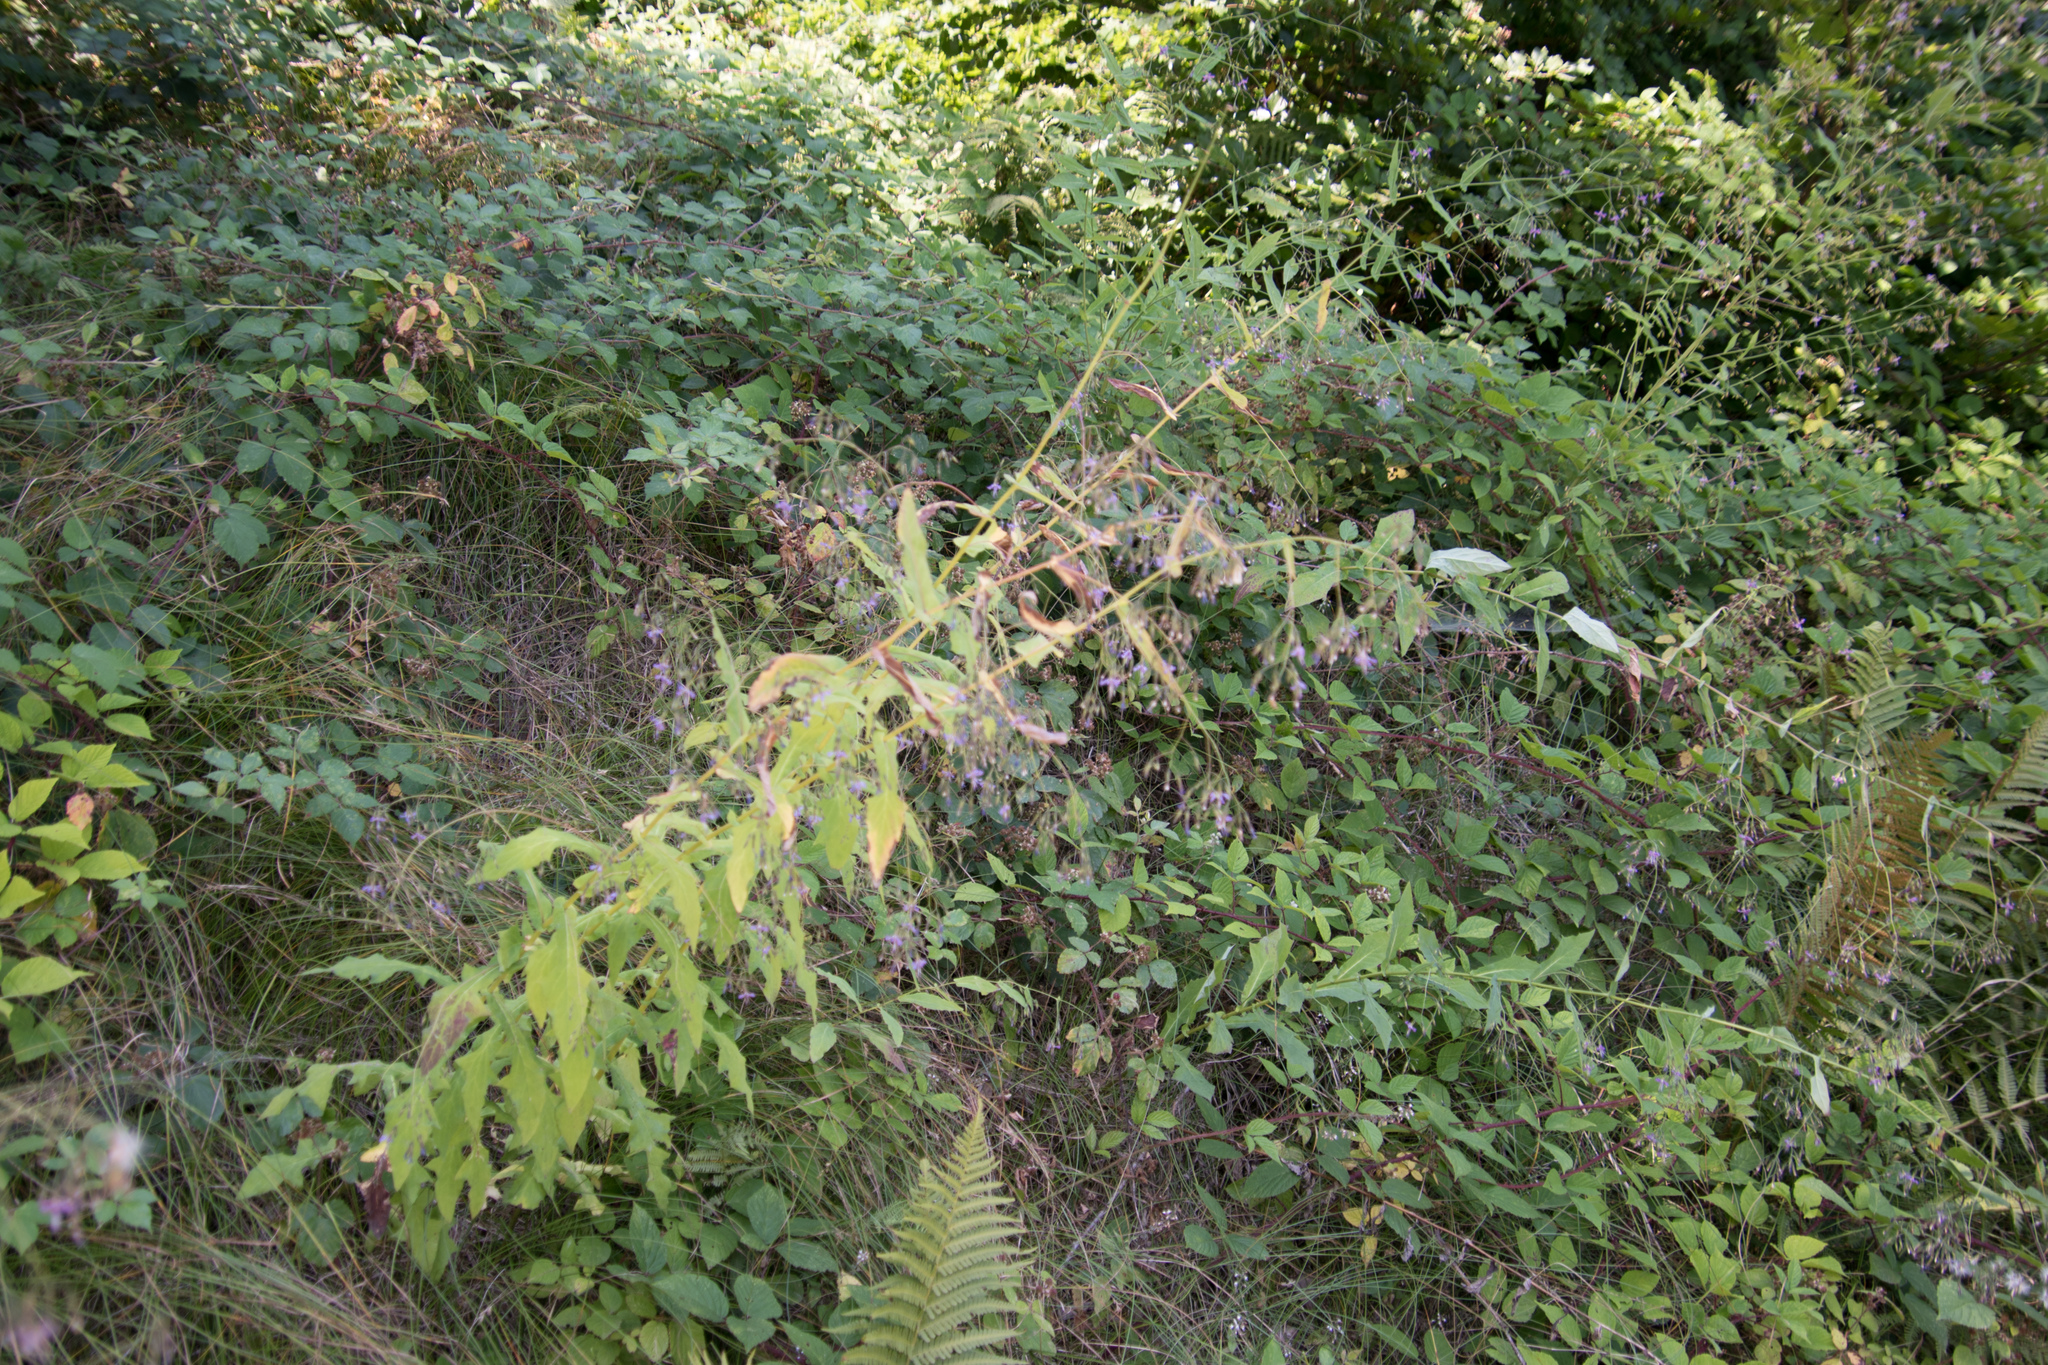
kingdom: Plantae
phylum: Tracheophyta
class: Magnoliopsida
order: Asterales
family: Asteraceae
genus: Prenanthes
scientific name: Prenanthes purpurea
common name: Purple lettuce
